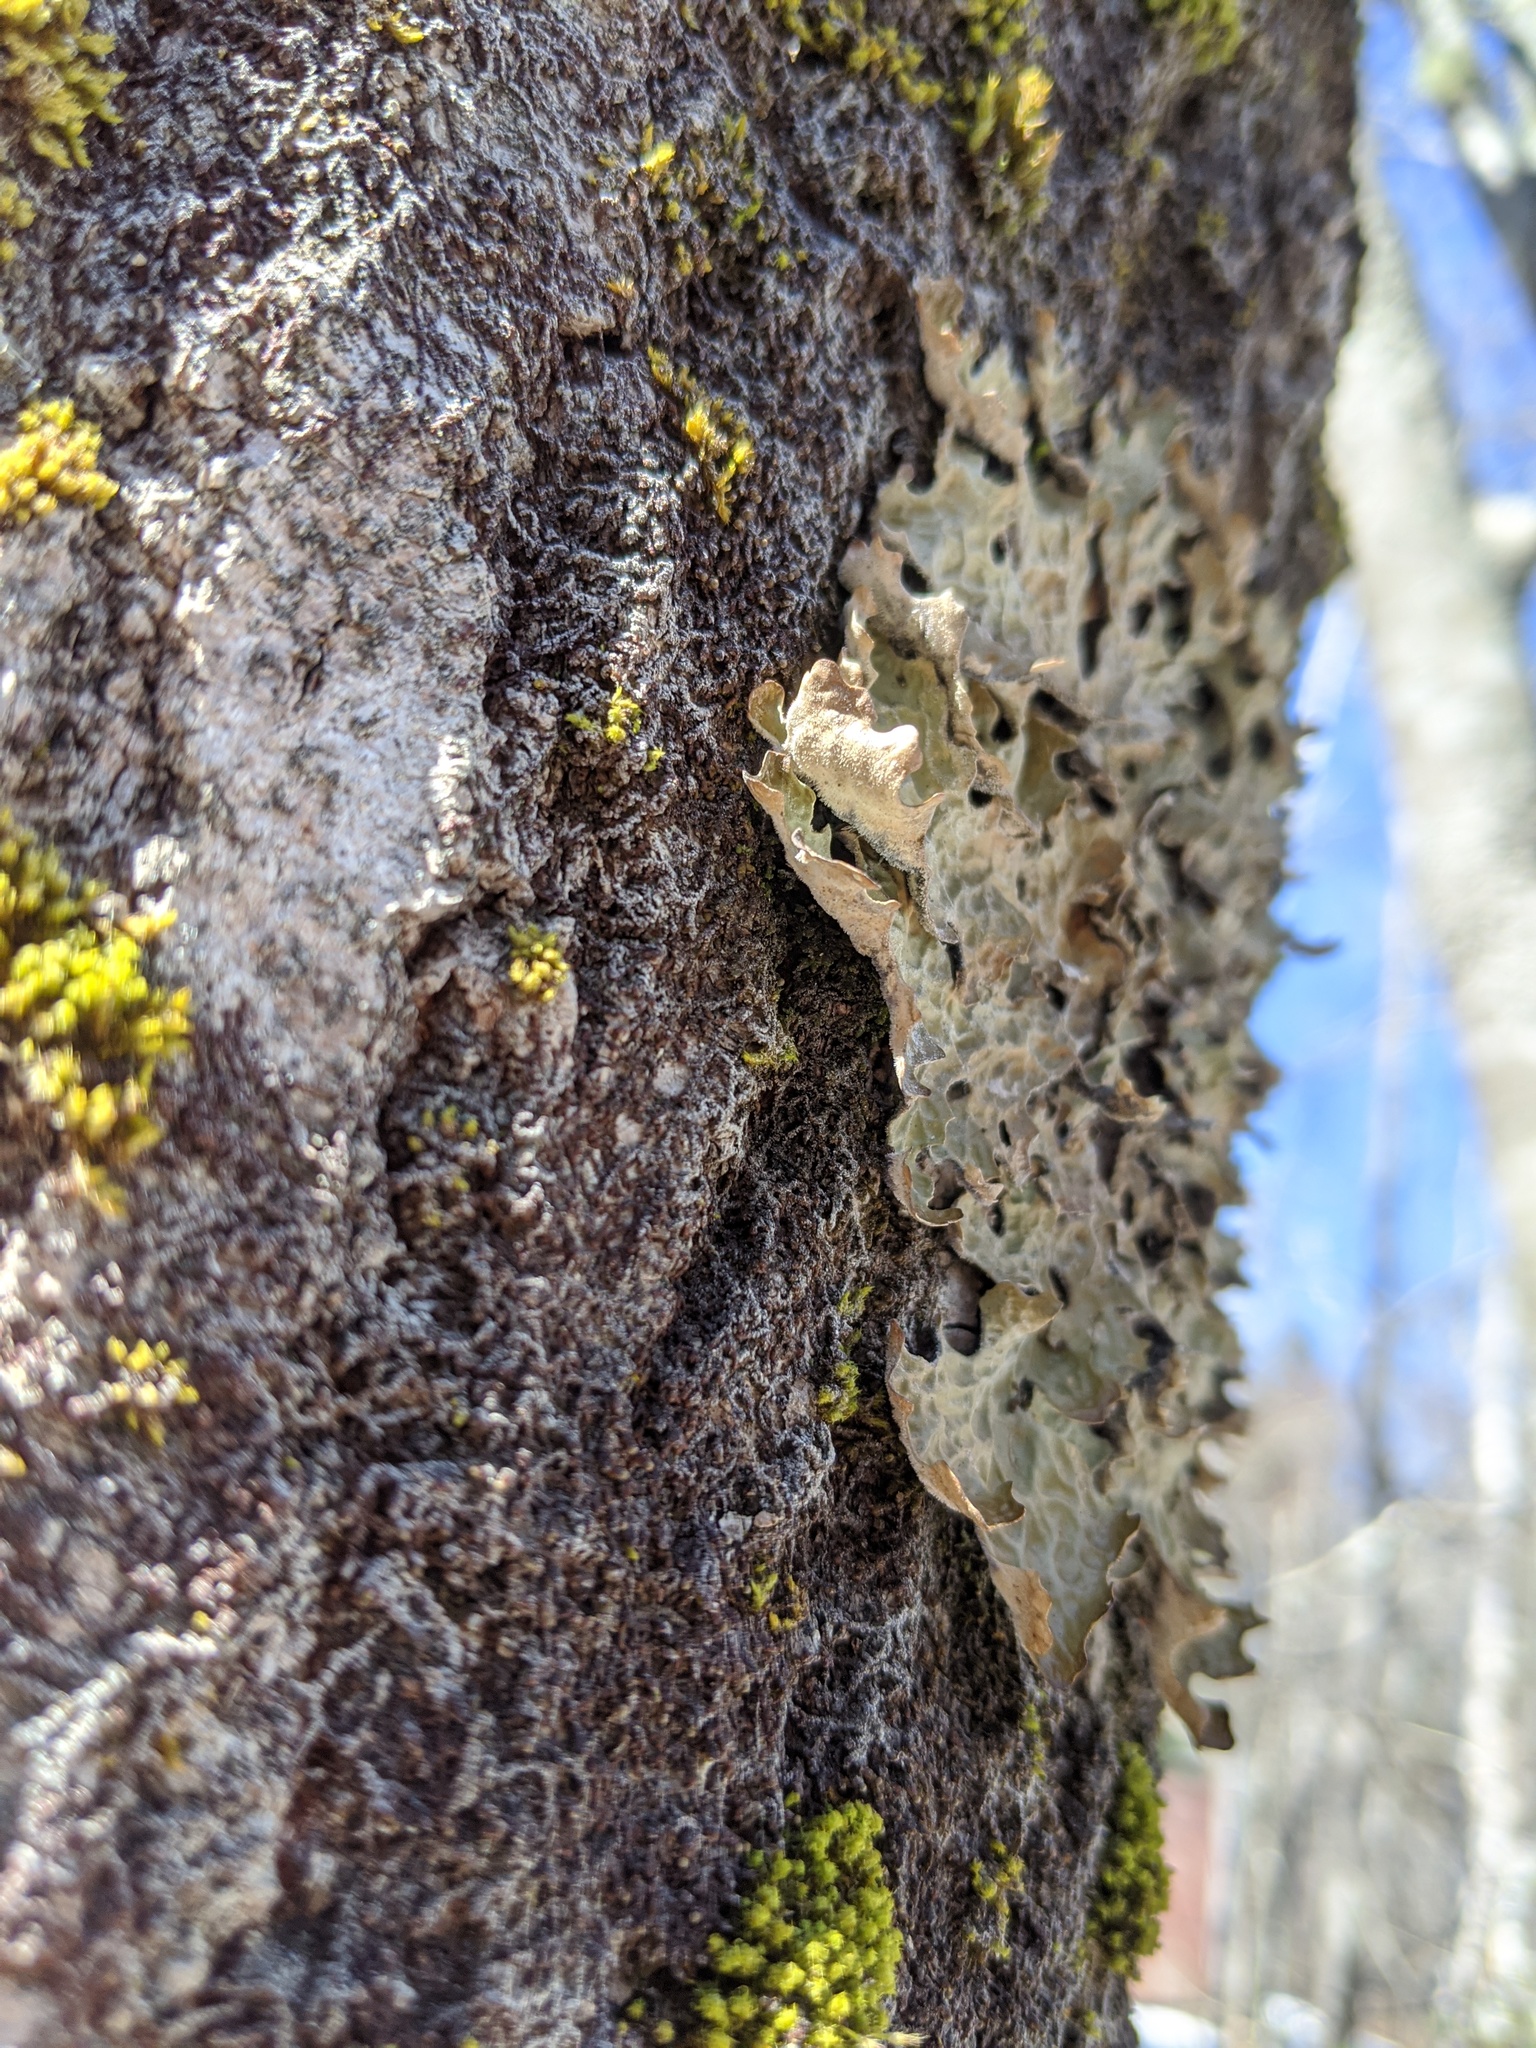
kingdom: Fungi
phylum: Ascomycota
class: Lecanoromycetes
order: Peltigerales
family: Lobariaceae
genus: Lobaria
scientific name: Lobaria pulmonaria
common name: Lungwort
